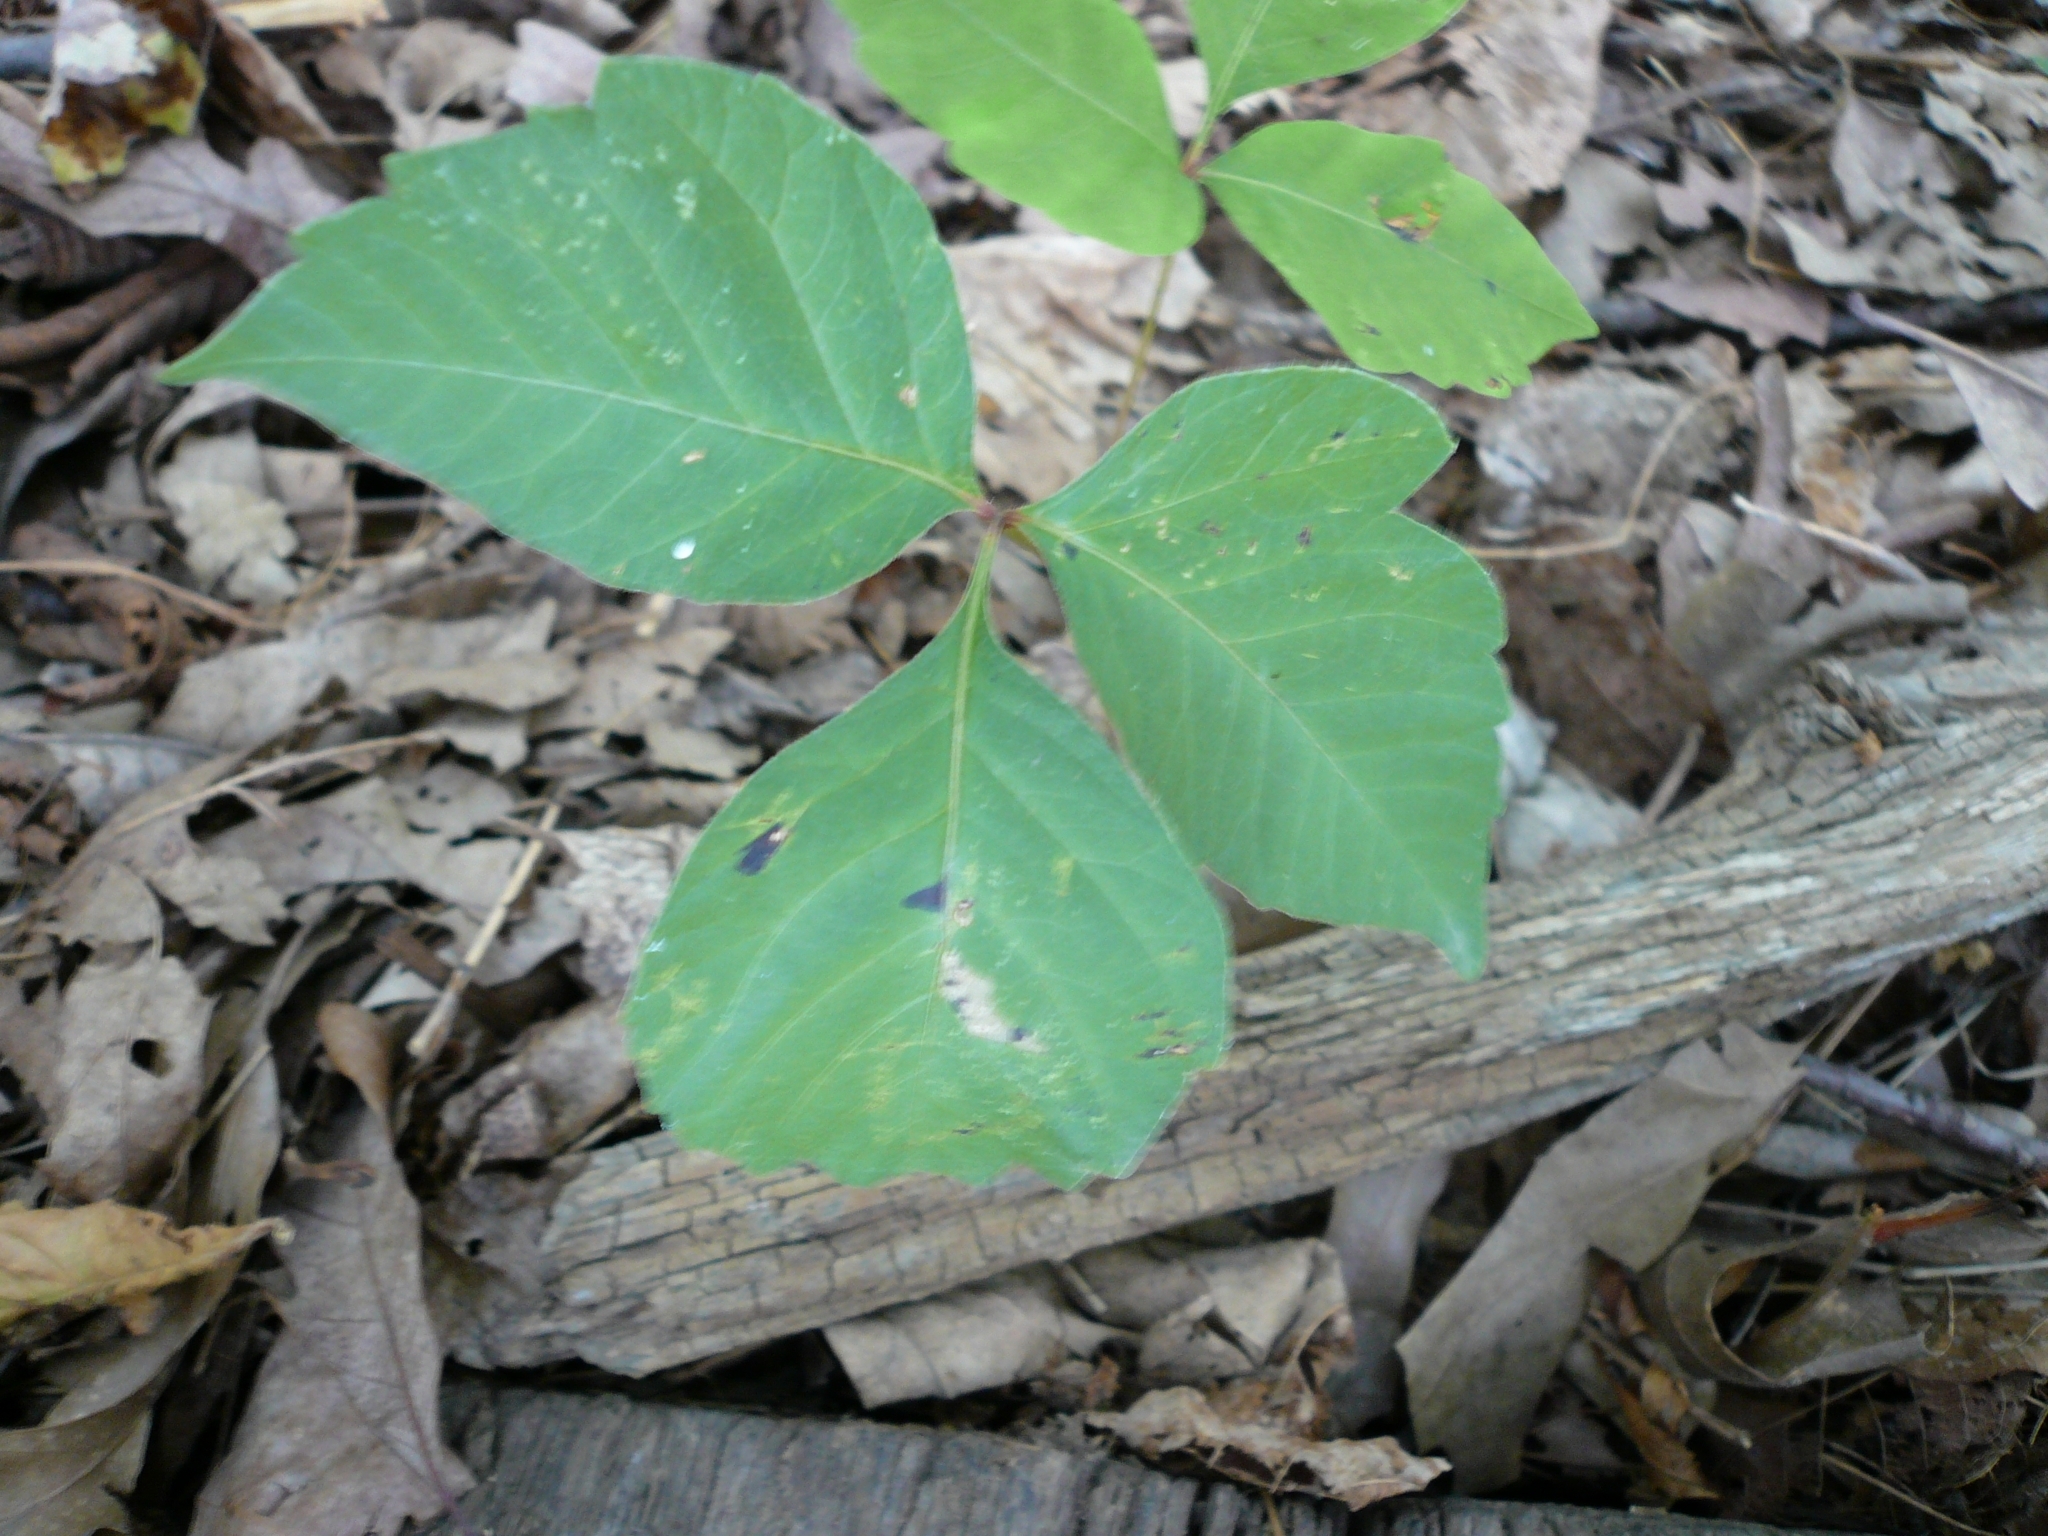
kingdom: Plantae
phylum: Tracheophyta
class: Magnoliopsida
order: Sapindales
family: Anacardiaceae
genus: Toxicodendron
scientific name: Toxicodendron radicans
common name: Poison ivy
